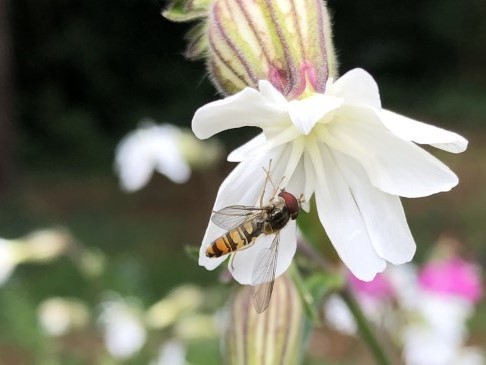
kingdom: Animalia
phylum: Arthropoda
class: Insecta
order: Diptera
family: Syrphidae
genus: Episyrphus
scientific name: Episyrphus balteatus
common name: Marmalade hoverfly
